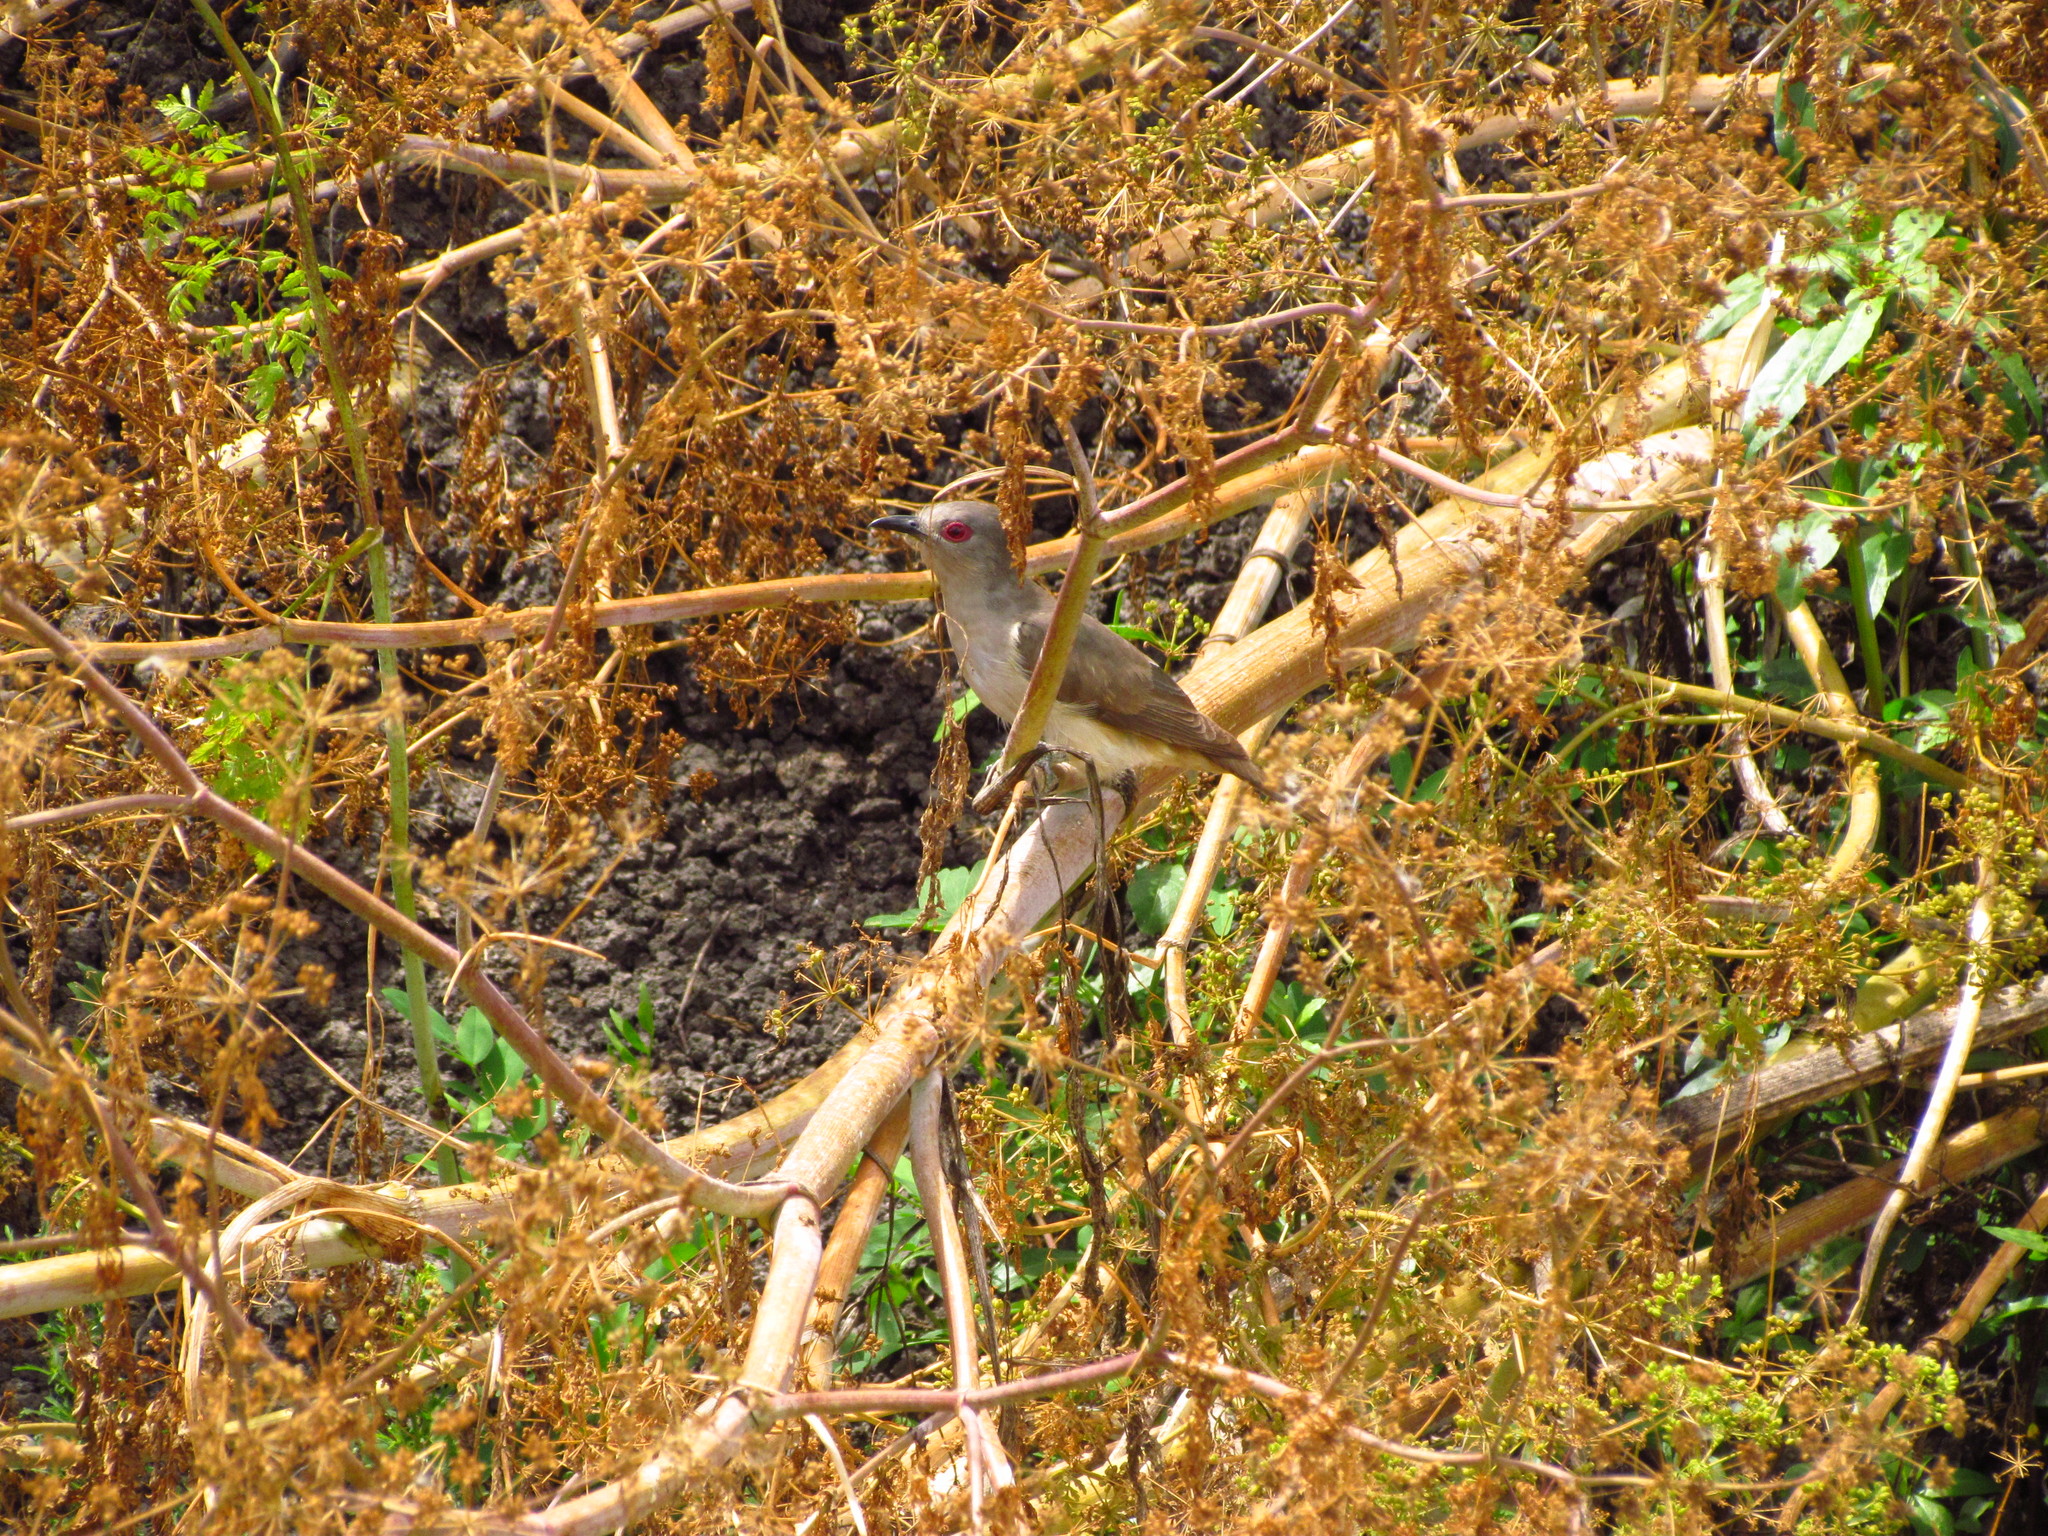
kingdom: Animalia
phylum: Chordata
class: Aves
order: Cuculiformes
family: Cuculidae
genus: Coccyzus
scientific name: Coccyzus cinereus
